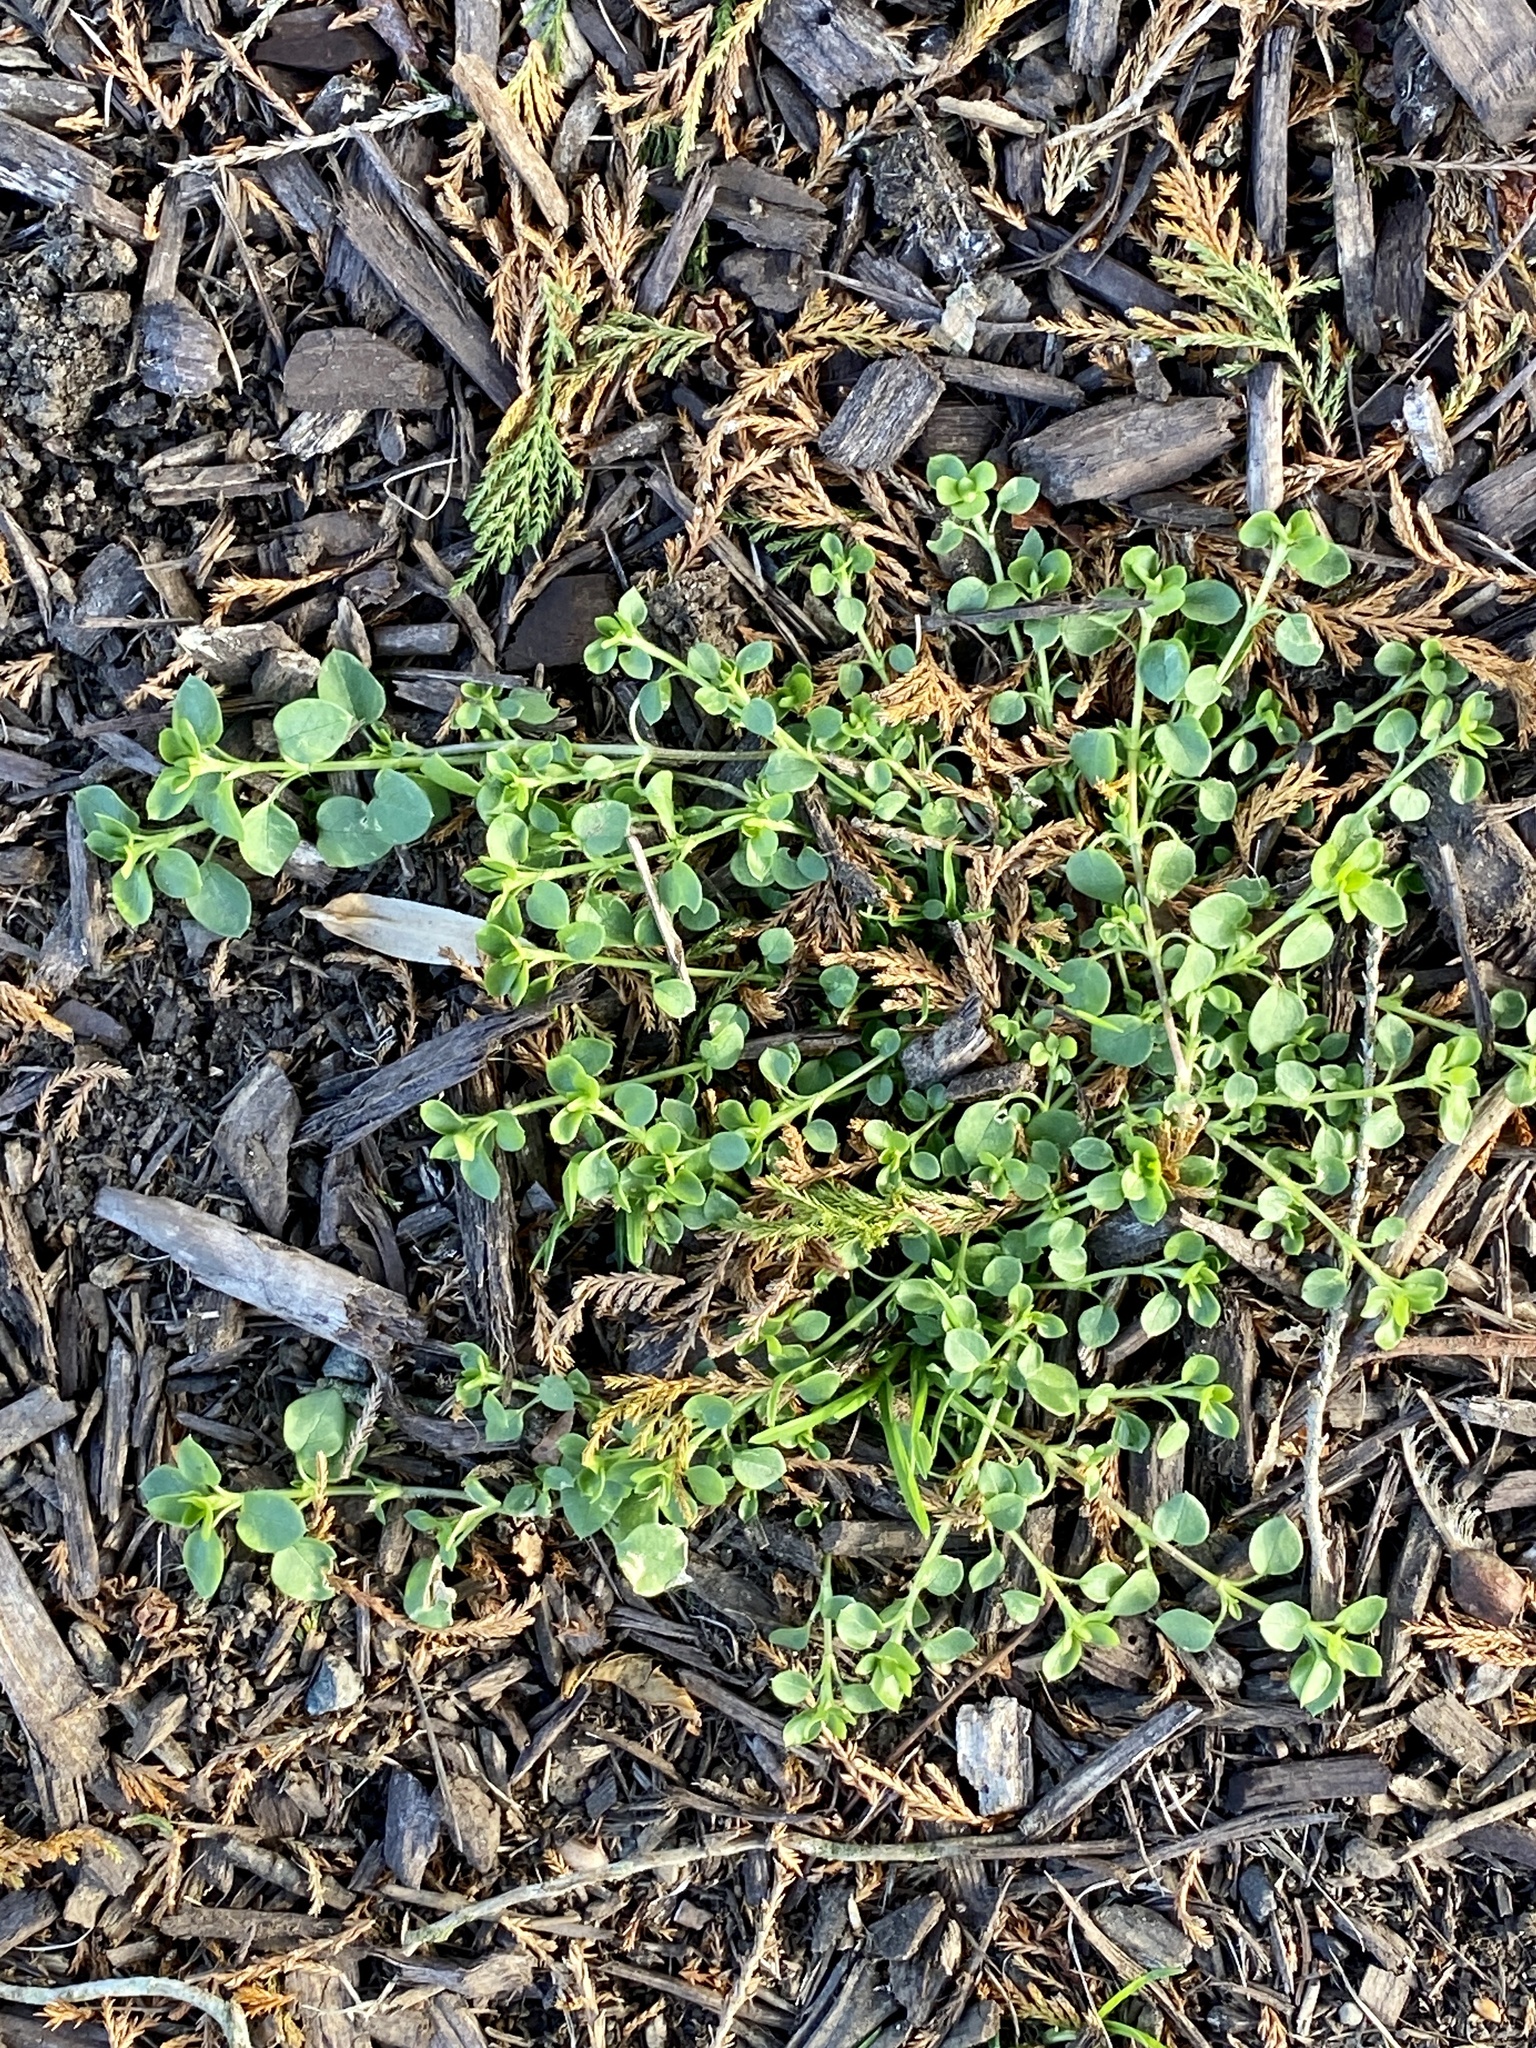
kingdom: Plantae
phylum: Tracheophyta
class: Magnoliopsida
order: Caryophyllales
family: Caryophyllaceae
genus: Stellaria
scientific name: Stellaria media
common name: Common chickweed
